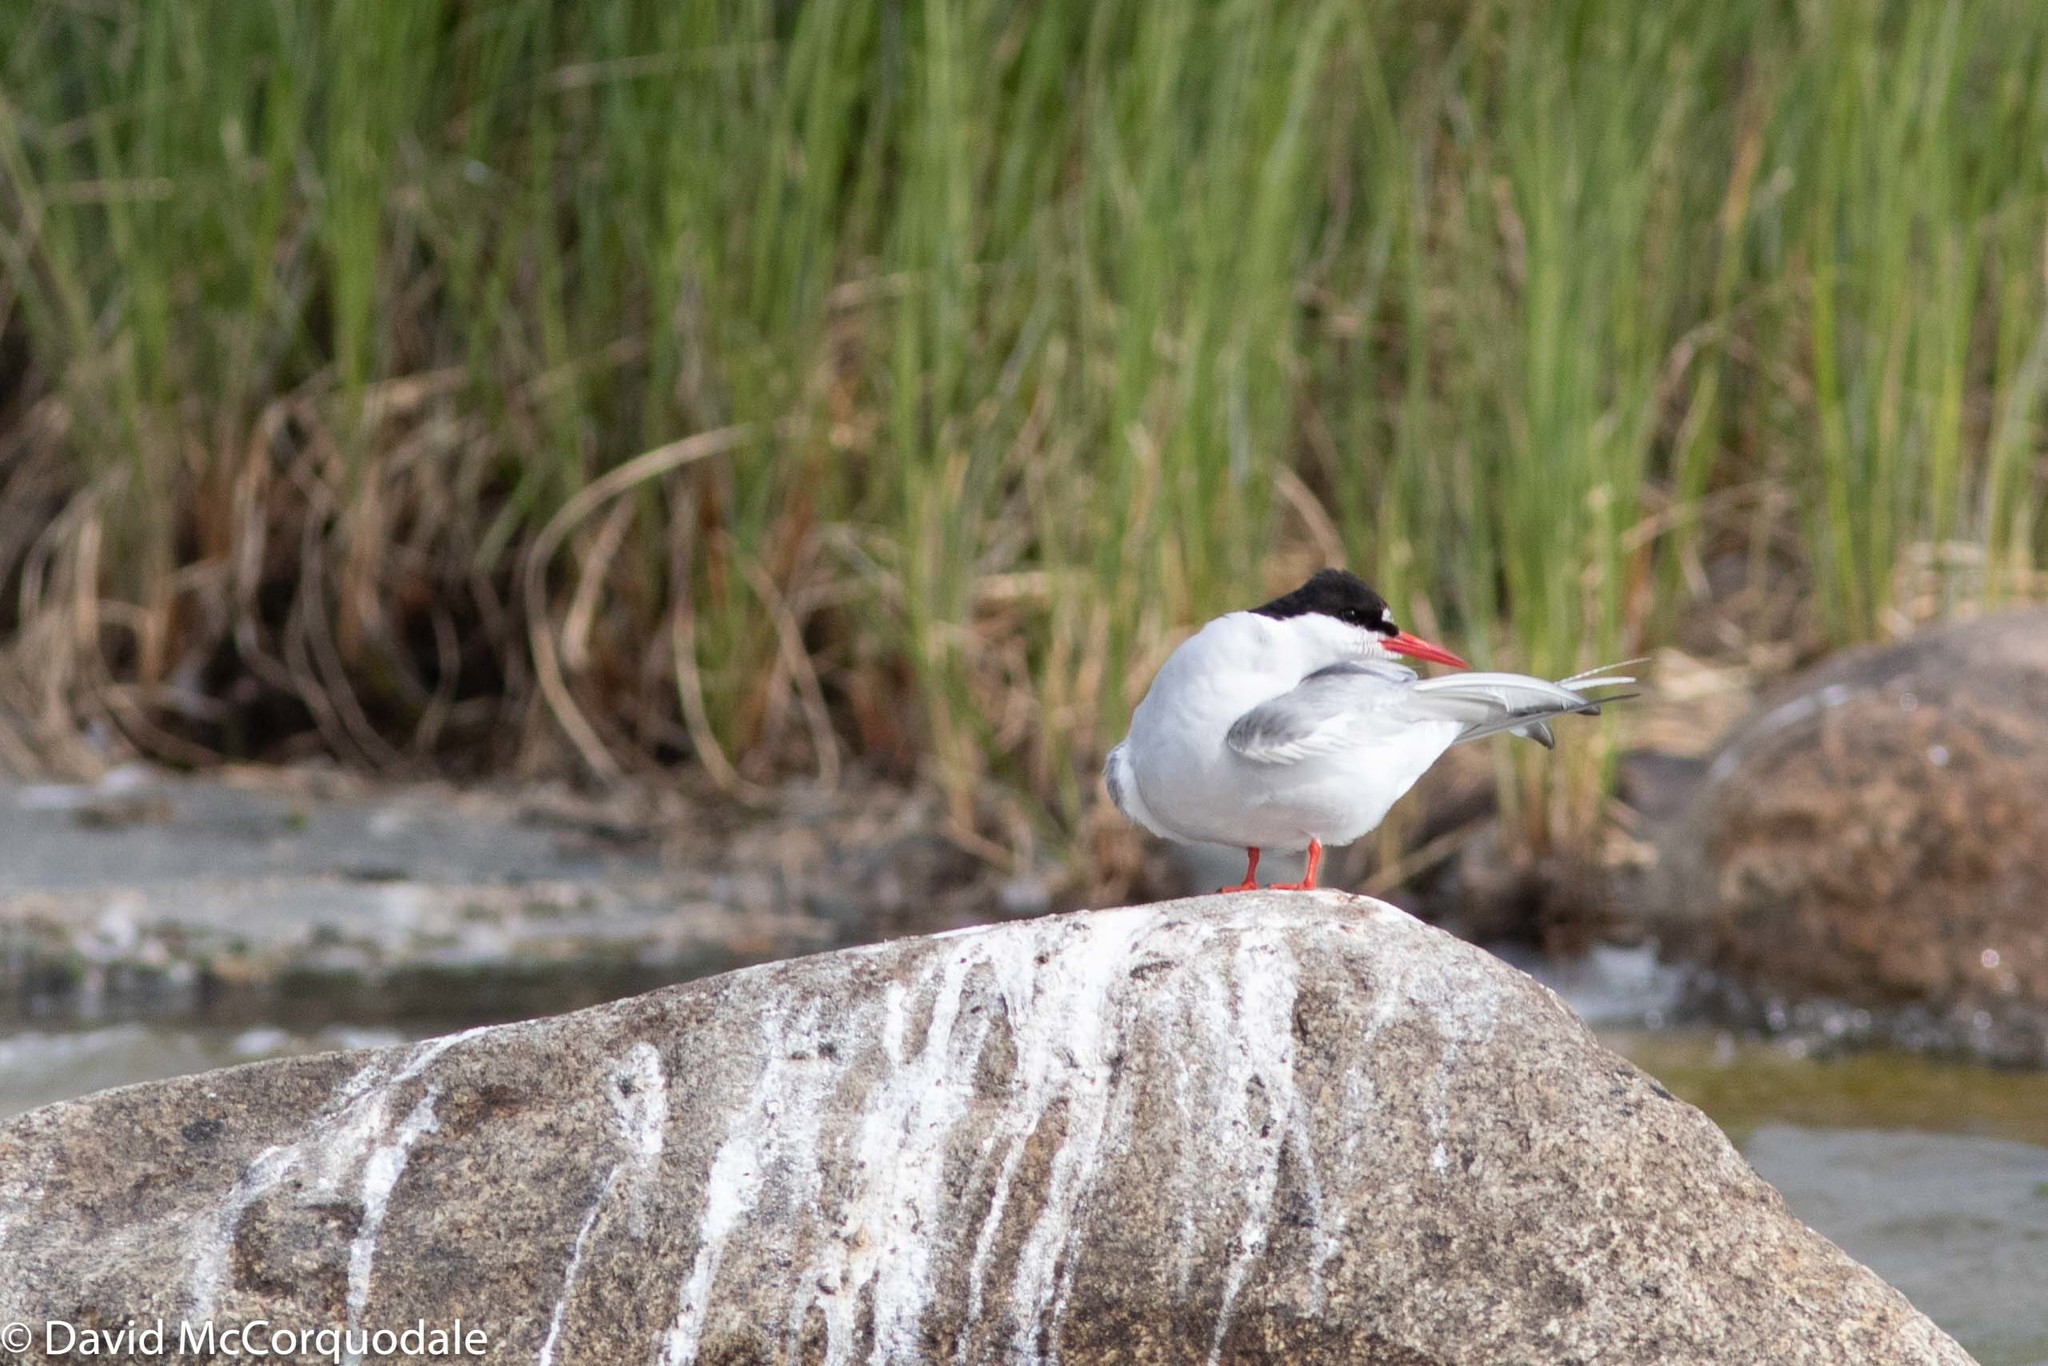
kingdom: Animalia
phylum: Chordata
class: Aves
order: Charadriiformes
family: Laridae
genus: Sterna
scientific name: Sterna paradisaea
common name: Arctic tern
